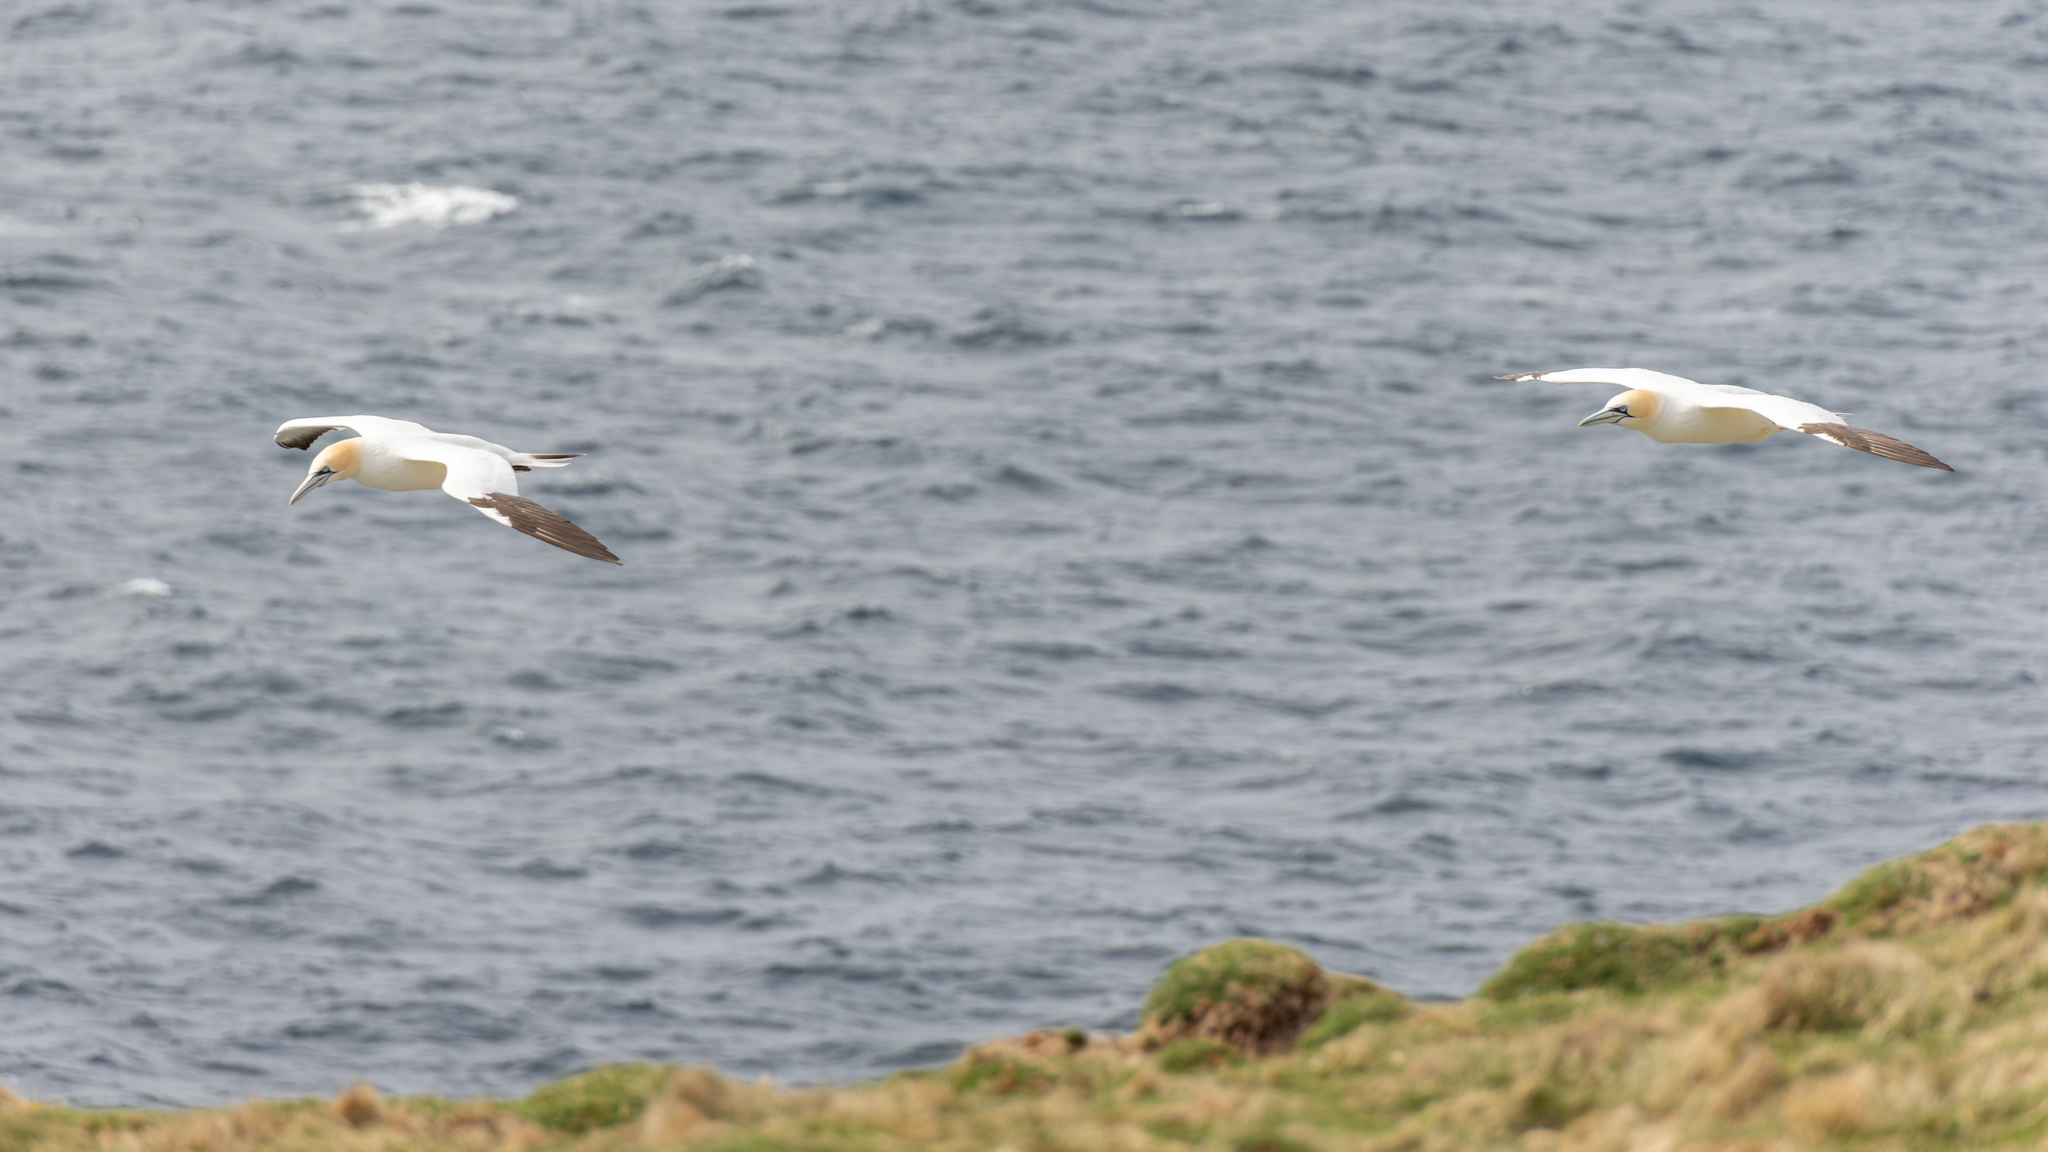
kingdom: Animalia
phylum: Chordata
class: Aves
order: Suliformes
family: Sulidae
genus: Morus
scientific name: Morus bassanus
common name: Northern gannet
